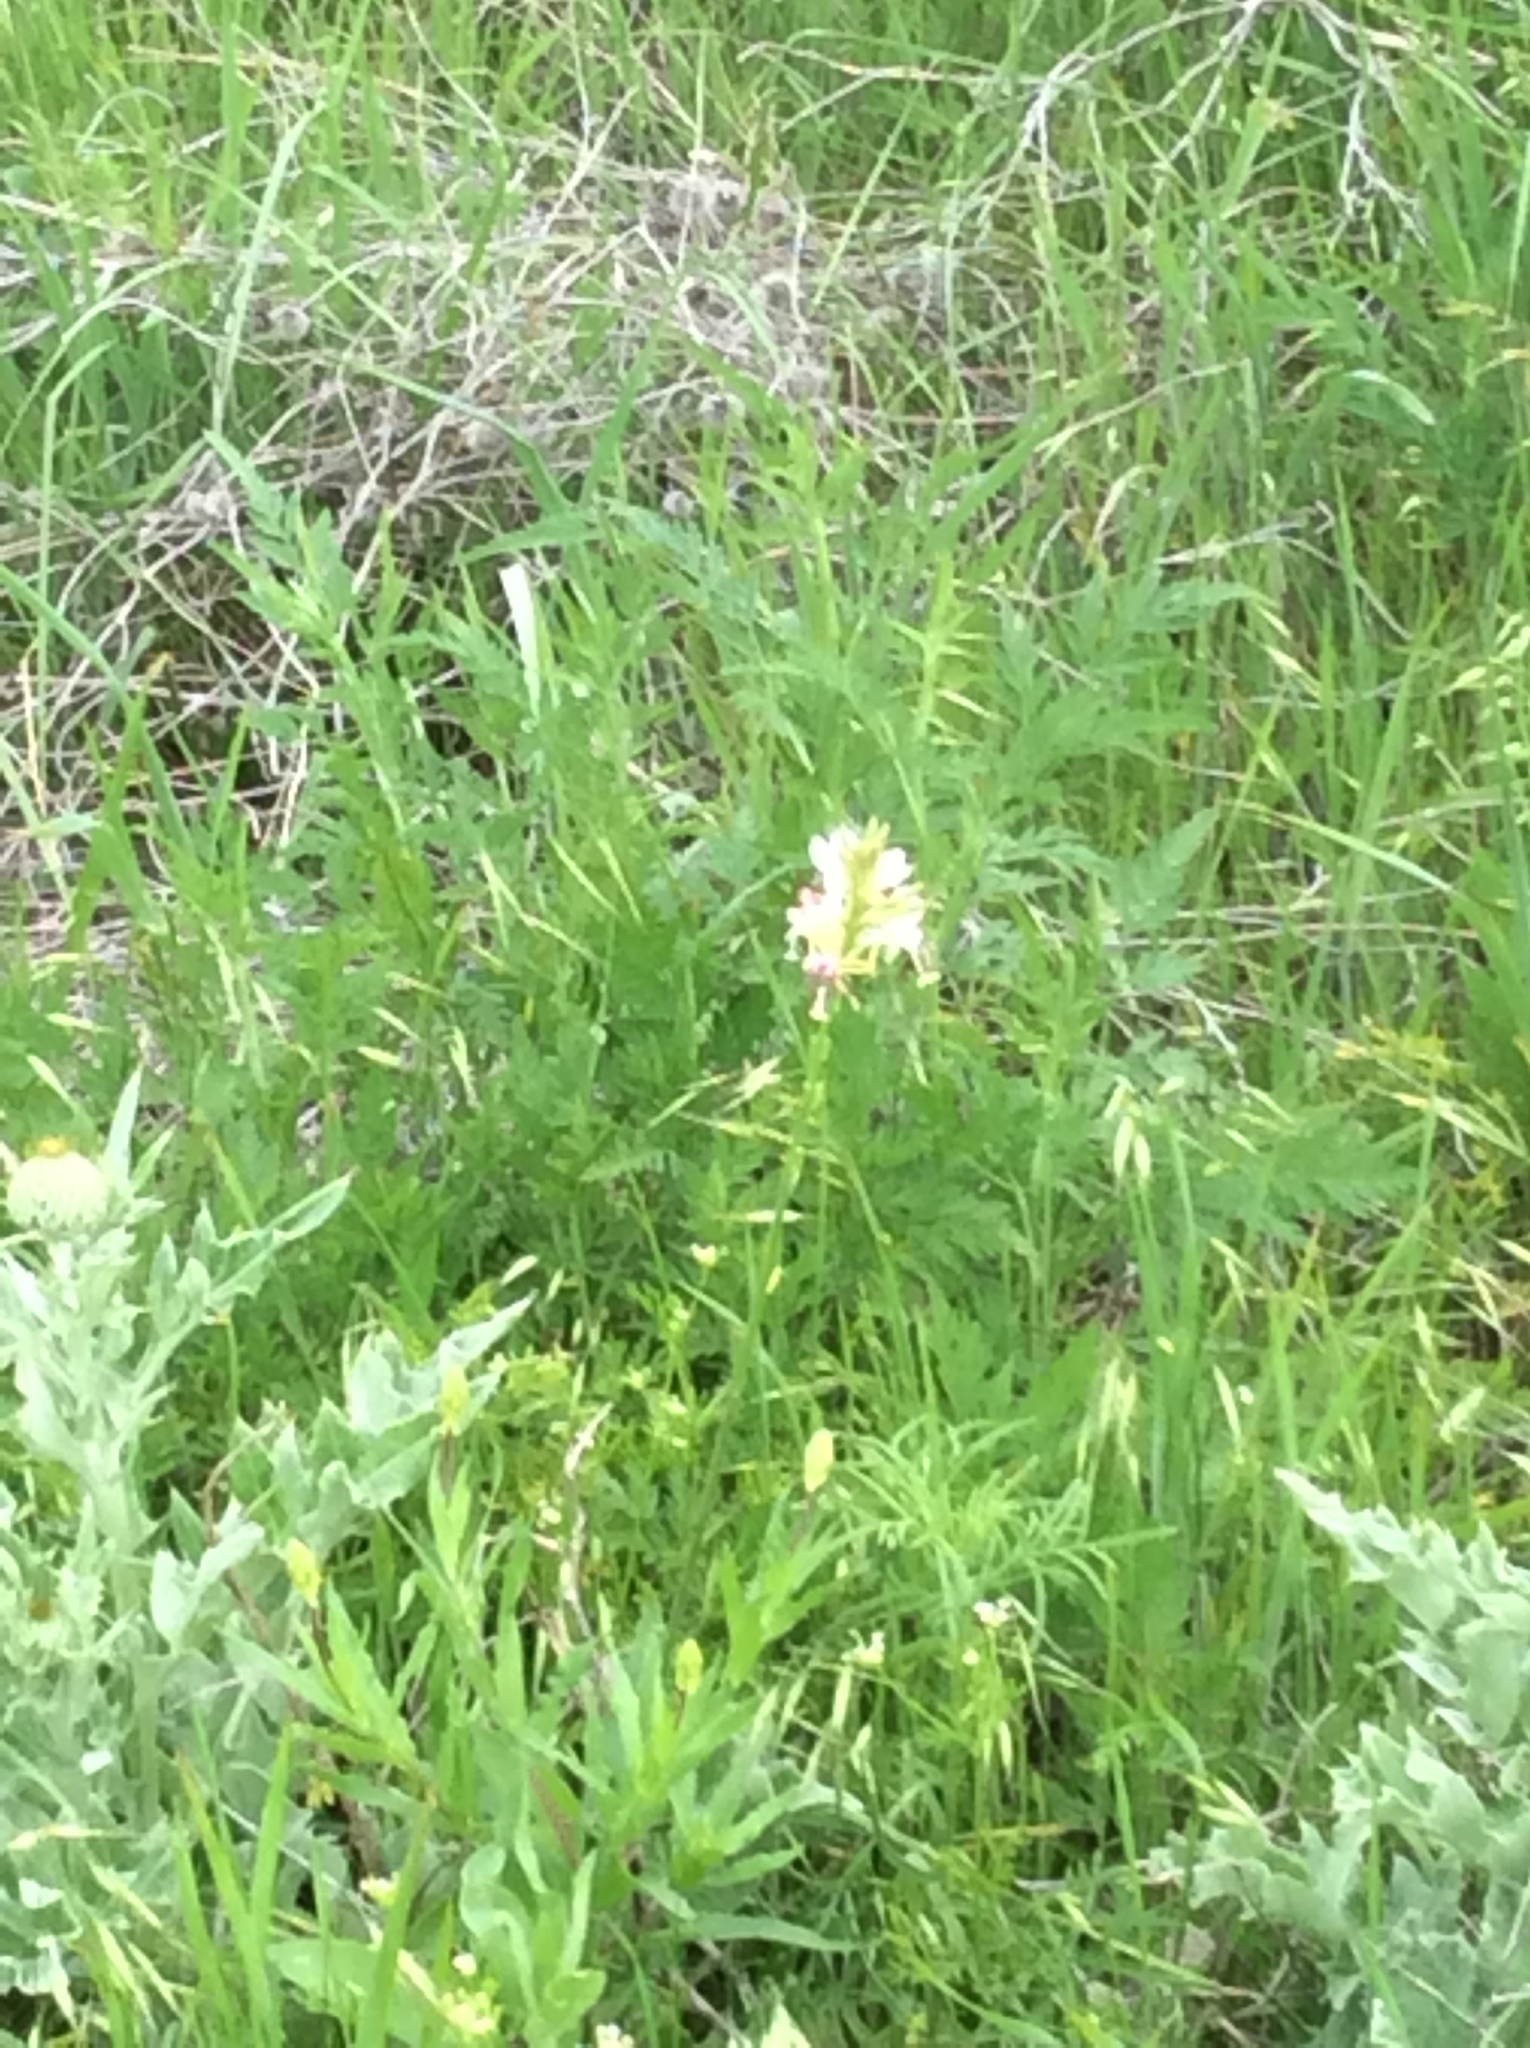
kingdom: Plantae
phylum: Tracheophyta
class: Magnoliopsida
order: Myrtales
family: Onagraceae
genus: Oenothera
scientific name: Oenothera suffulta
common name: Kisses
